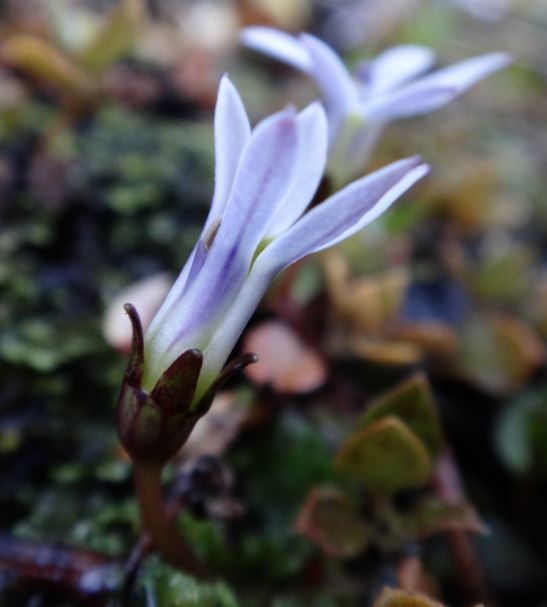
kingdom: Plantae
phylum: Tracheophyta
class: Magnoliopsida
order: Asterales
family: Campanulaceae
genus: Lobelia
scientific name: Lobelia angulata
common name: Lawn lobelia
